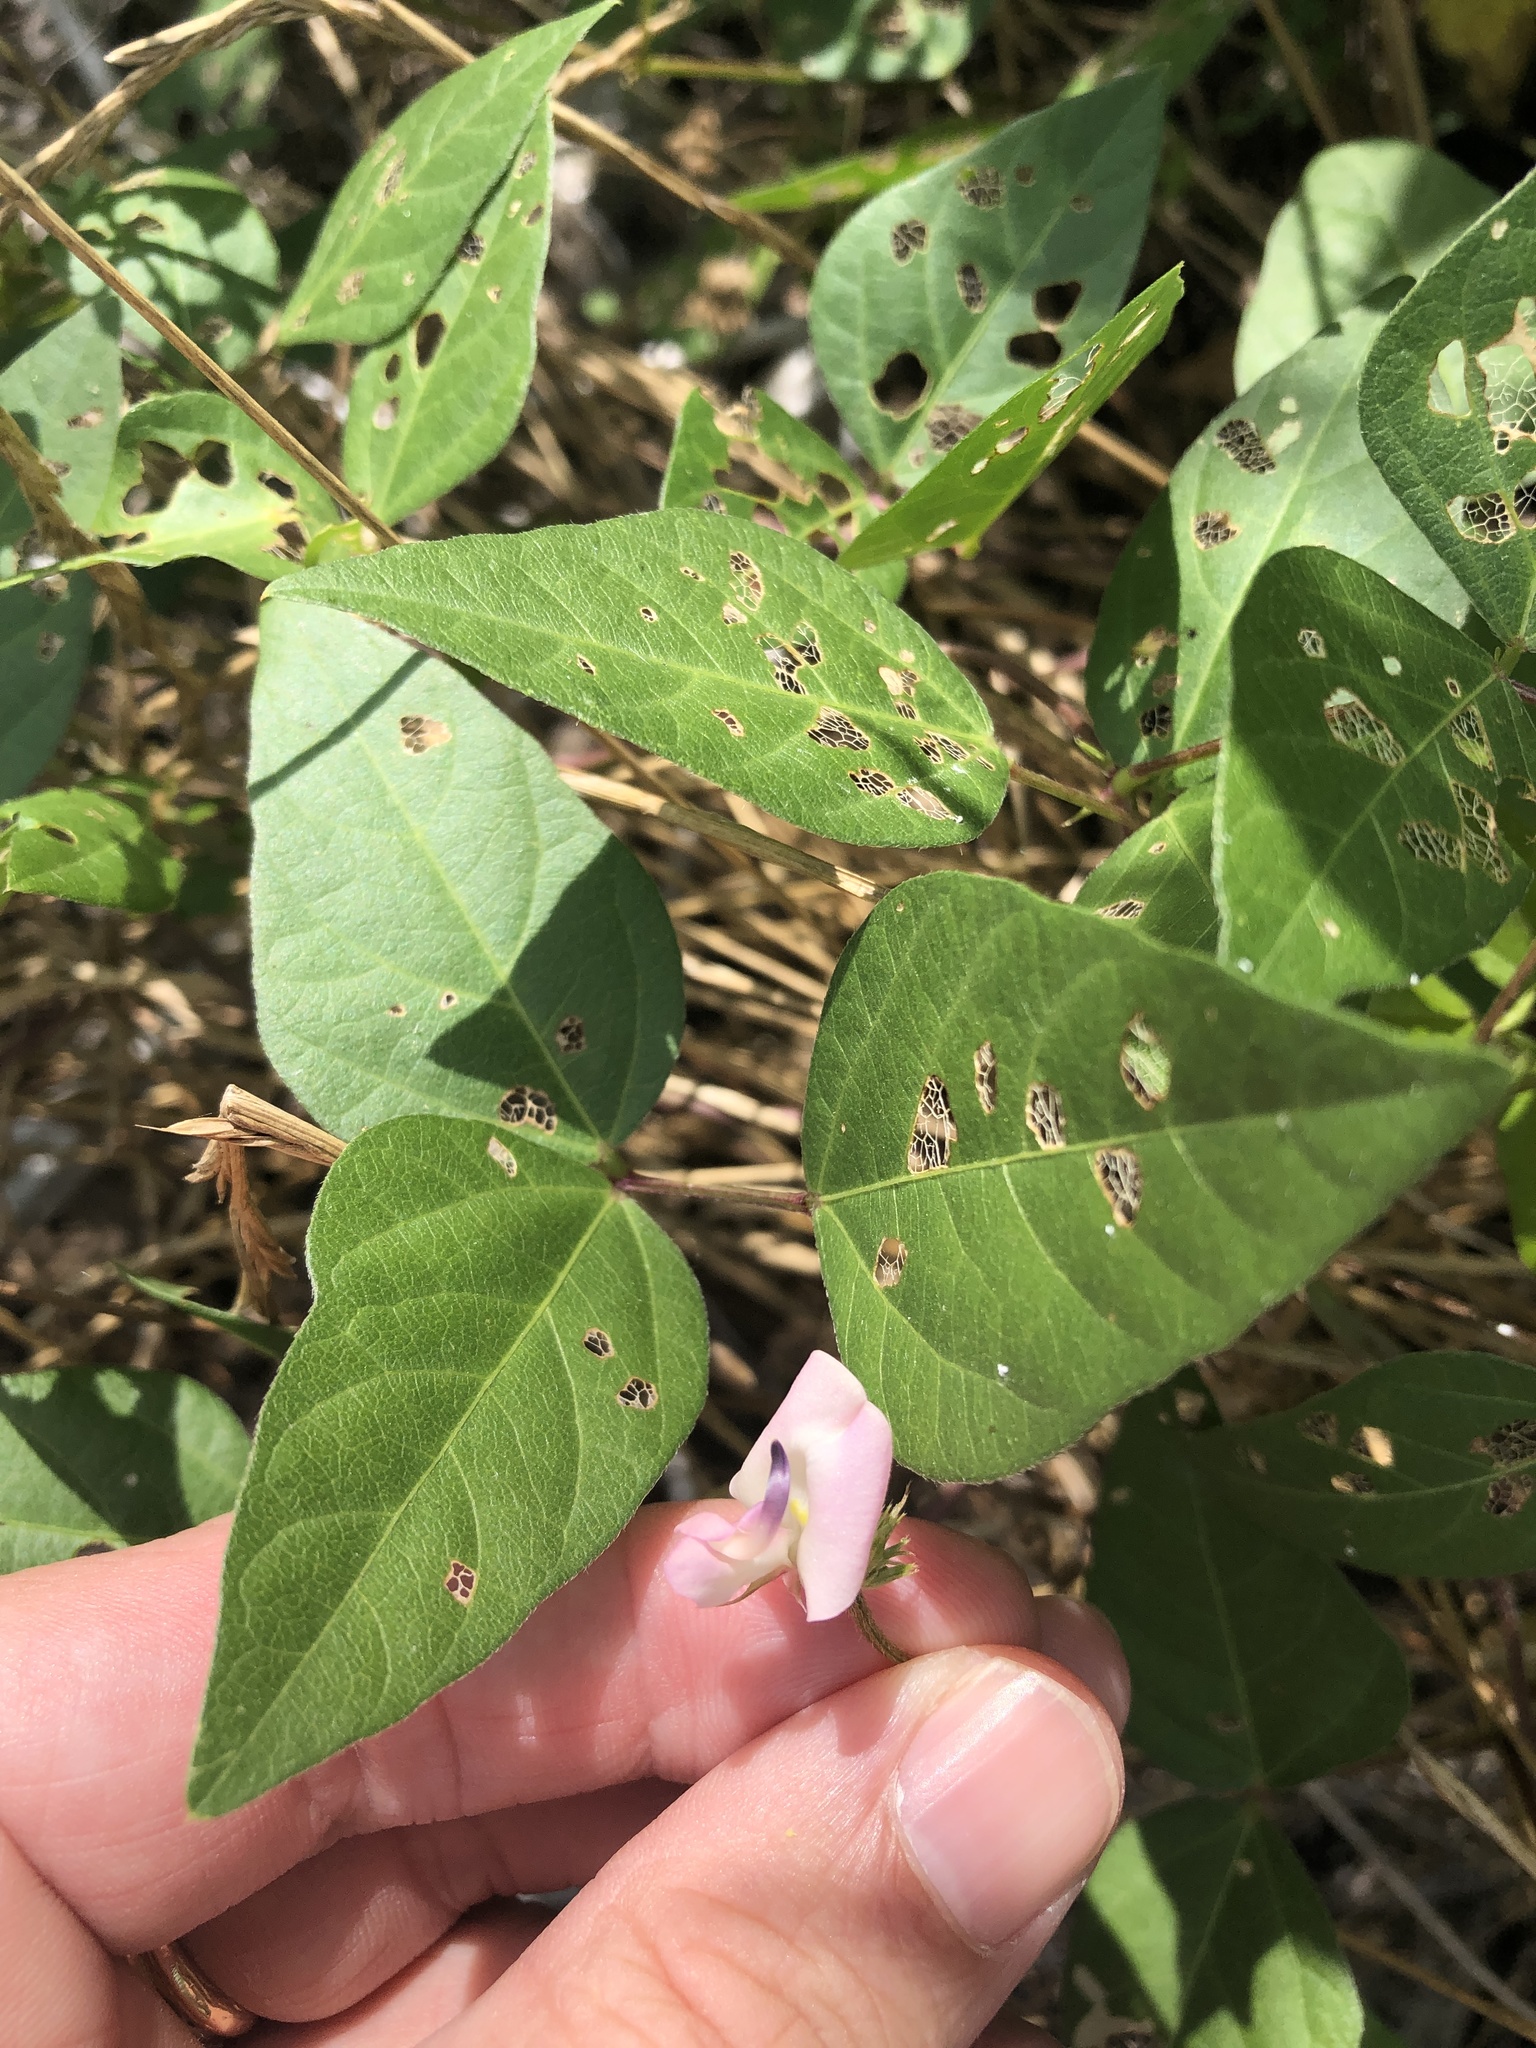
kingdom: Plantae
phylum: Tracheophyta
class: Magnoliopsida
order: Fabales
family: Fabaceae
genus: Strophostyles
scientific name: Strophostyles helvola
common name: Trailing wild bean
